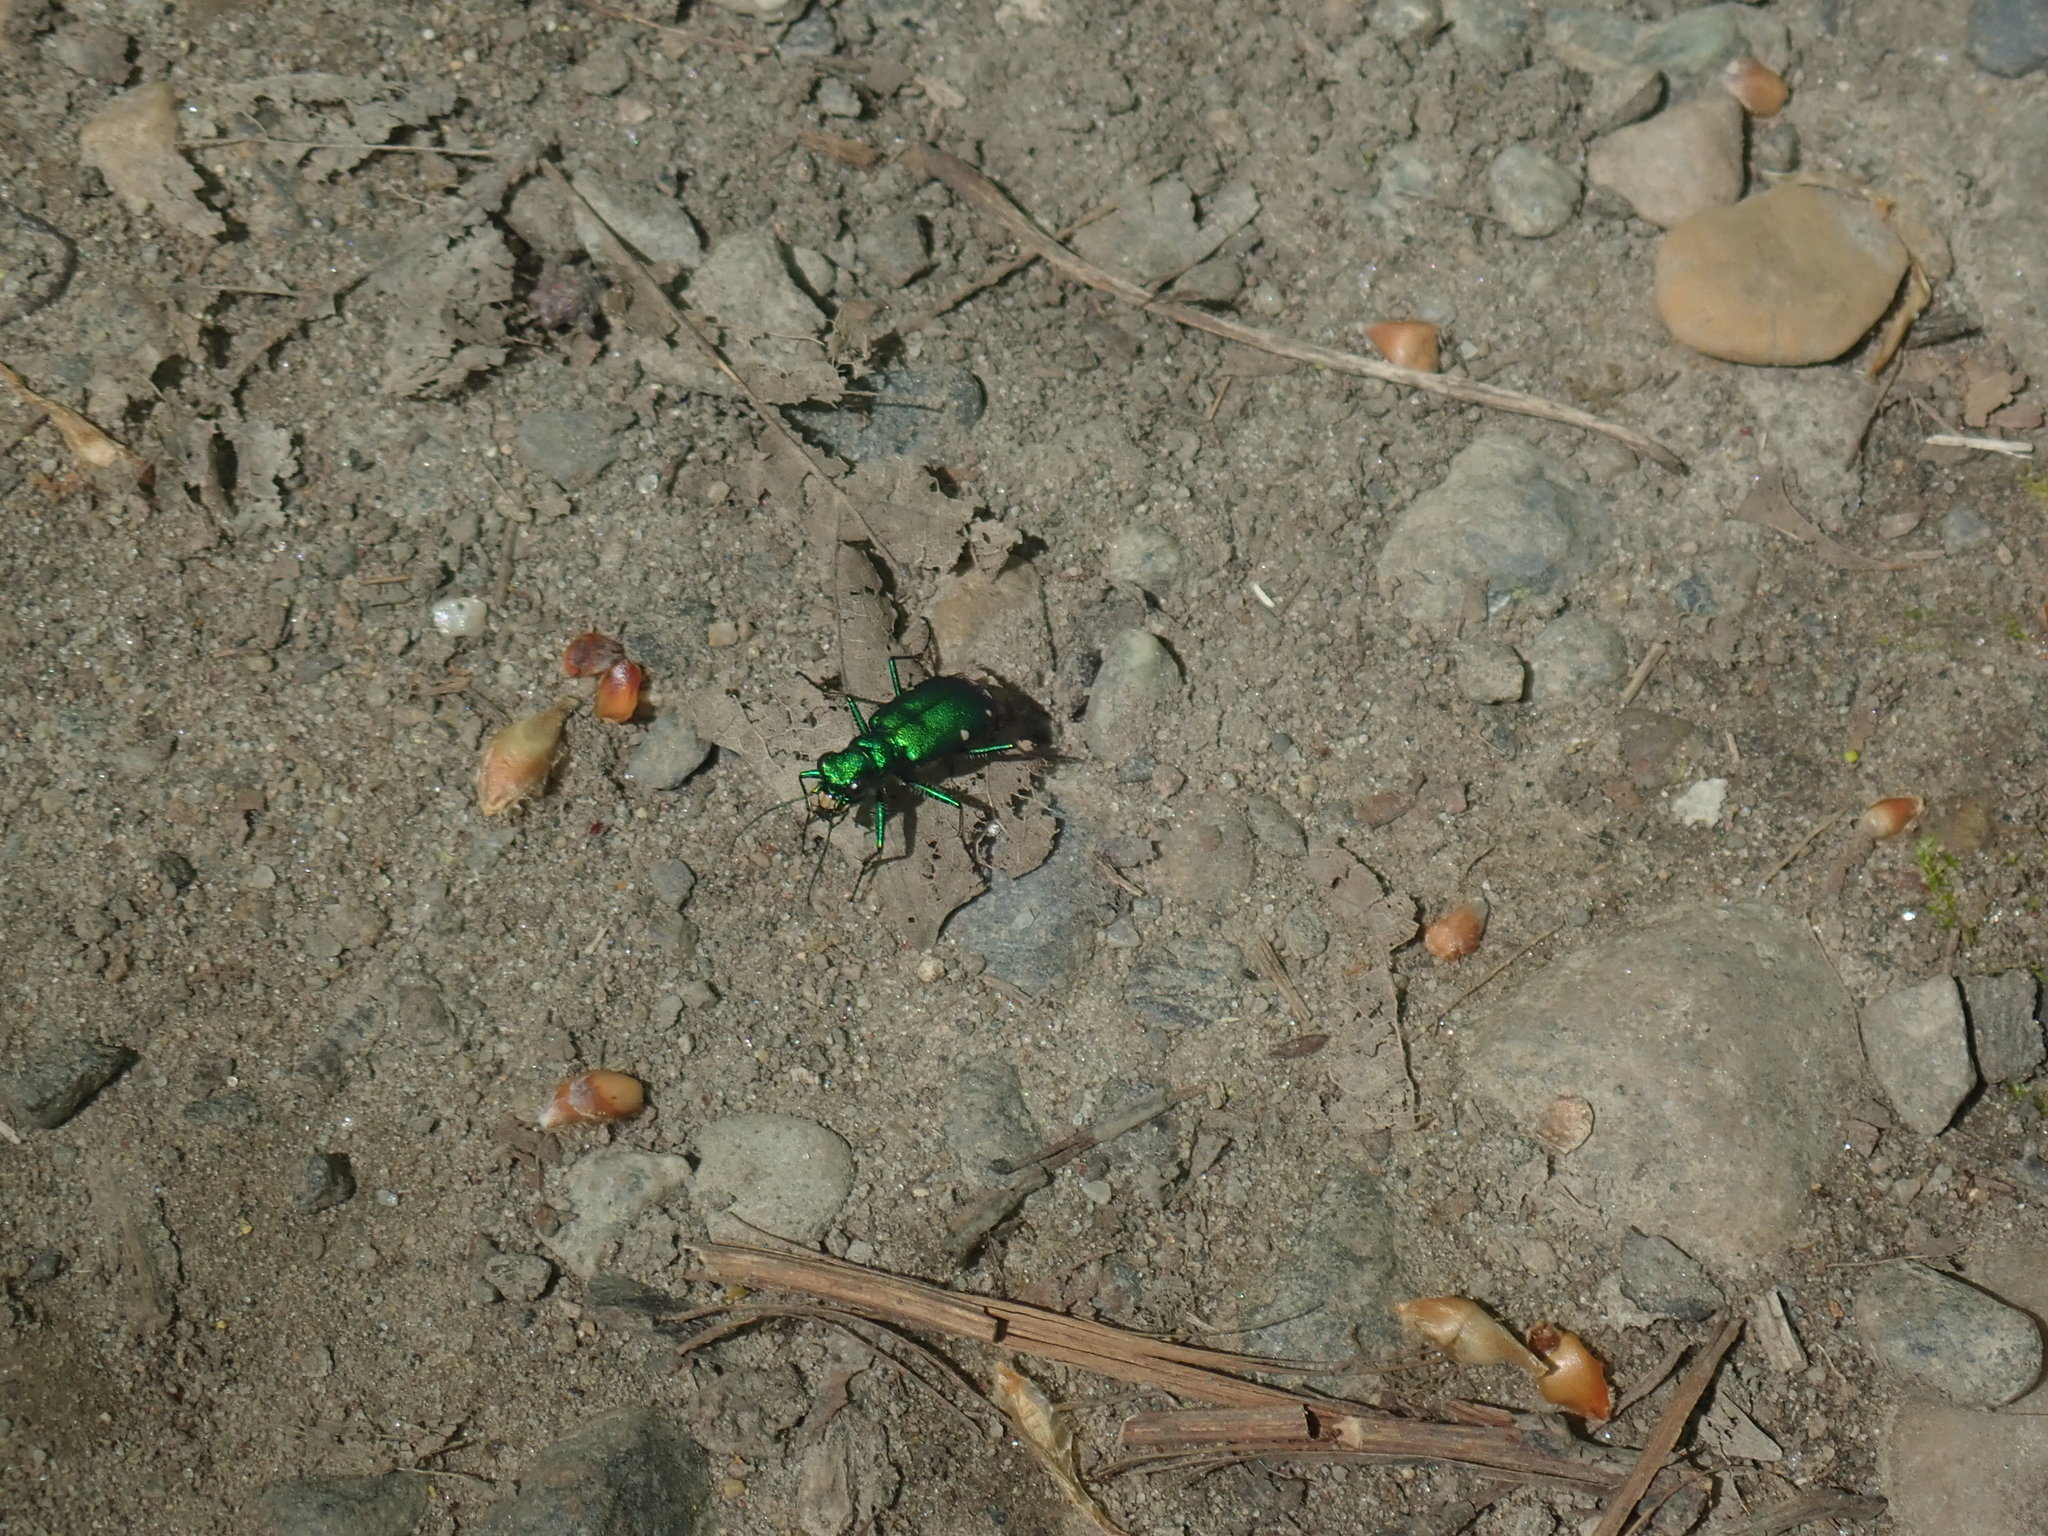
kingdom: Animalia
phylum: Arthropoda
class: Insecta
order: Coleoptera
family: Carabidae
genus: Cicindela
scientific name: Cicindela sexguttata
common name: Six-spotted tiger beetle
